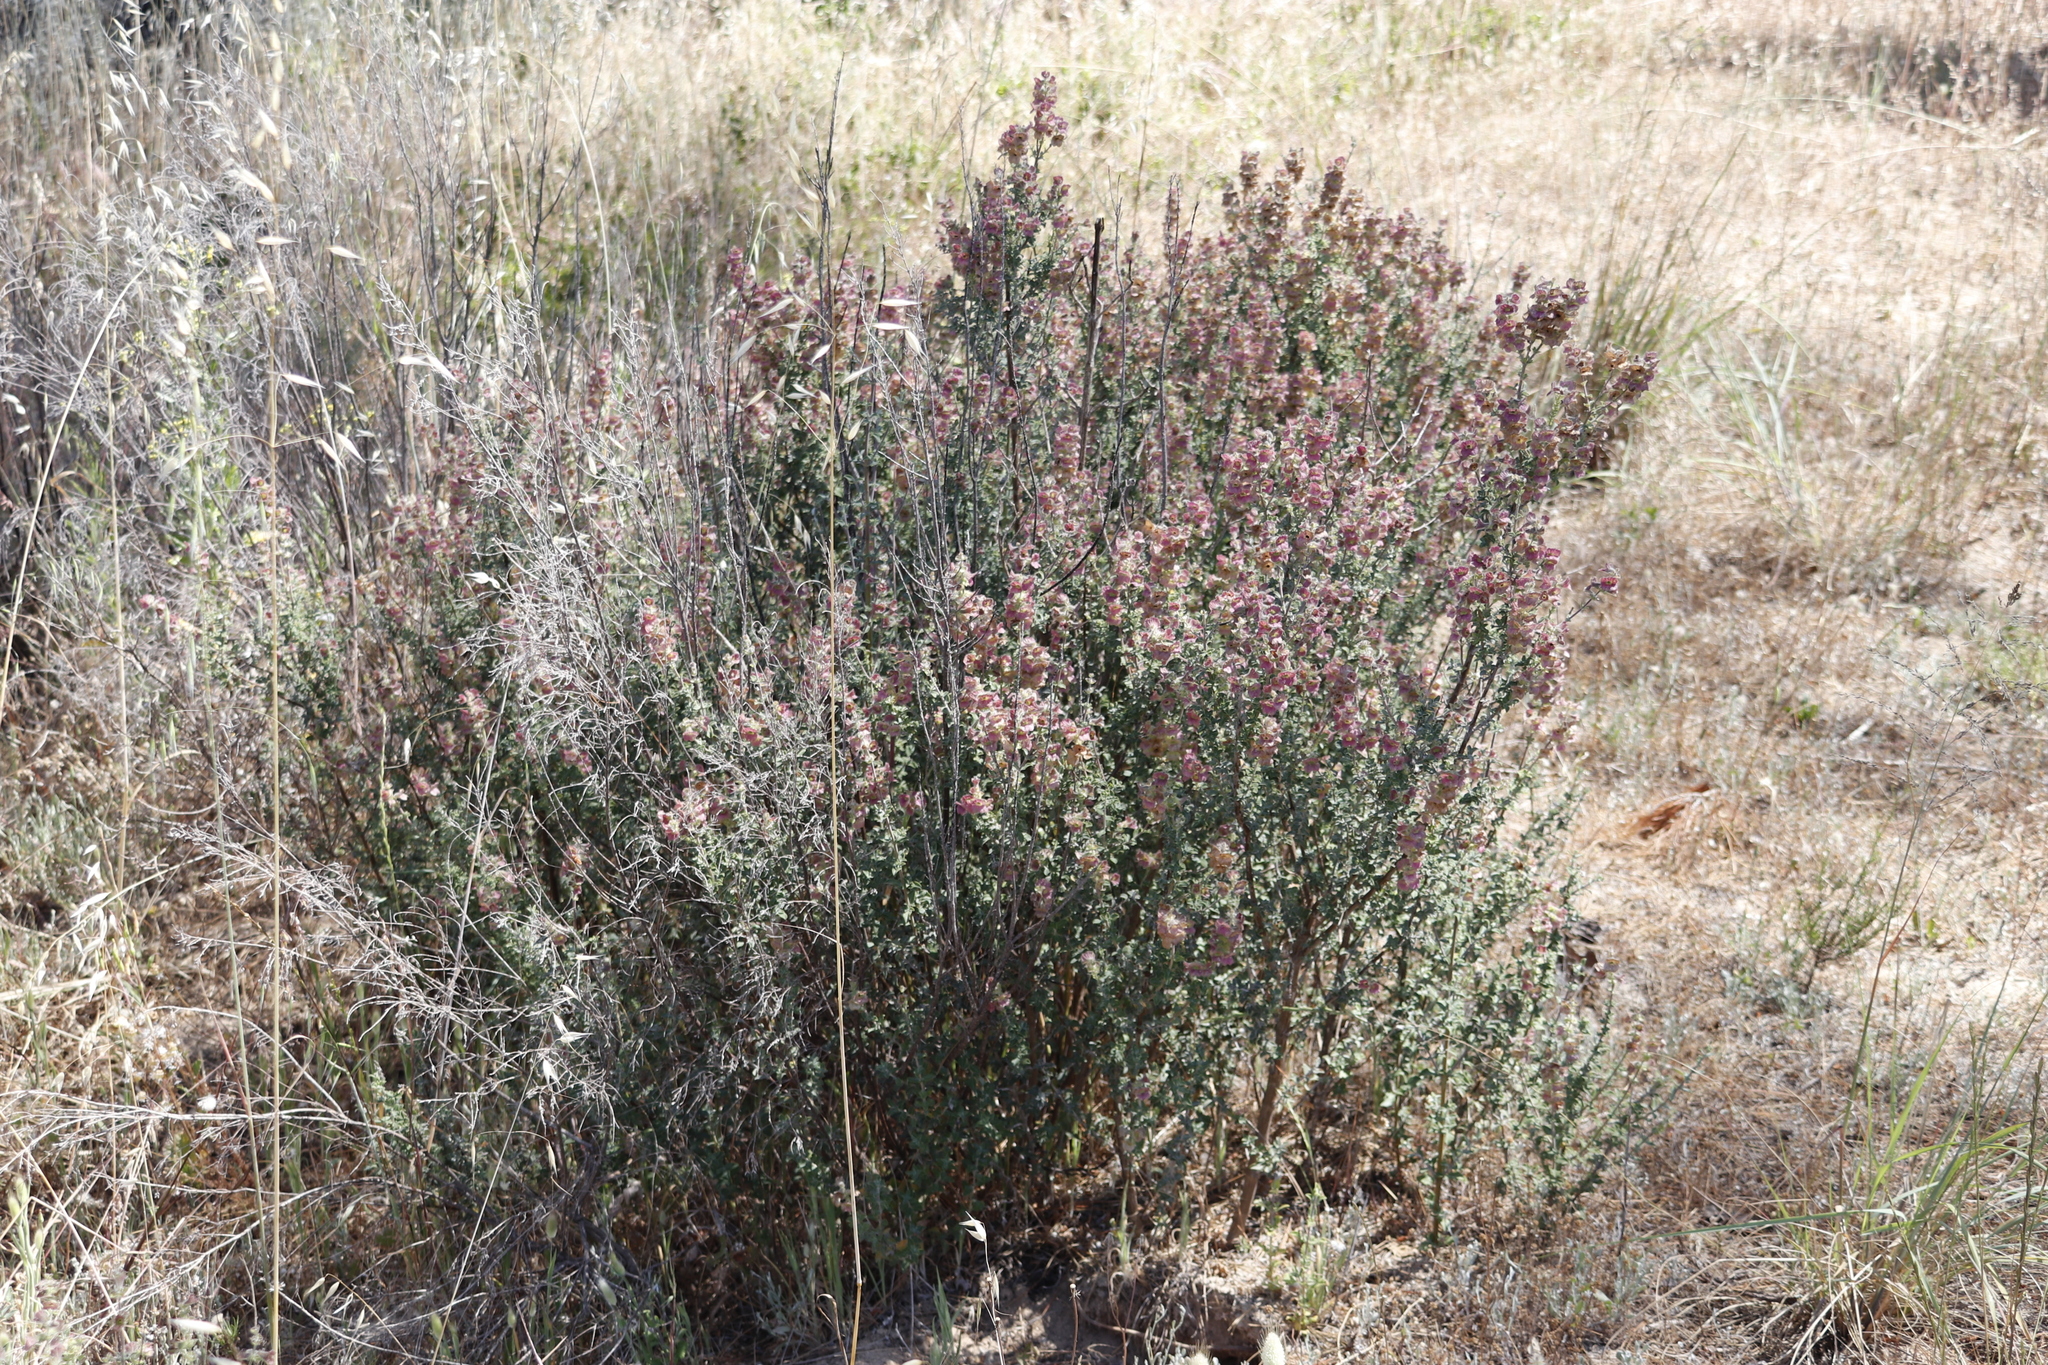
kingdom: Plantae
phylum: Tracheophyta
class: Magnoliopsida
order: Lamiales
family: Lamiaceae
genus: Salvia
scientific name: Salvia africana
